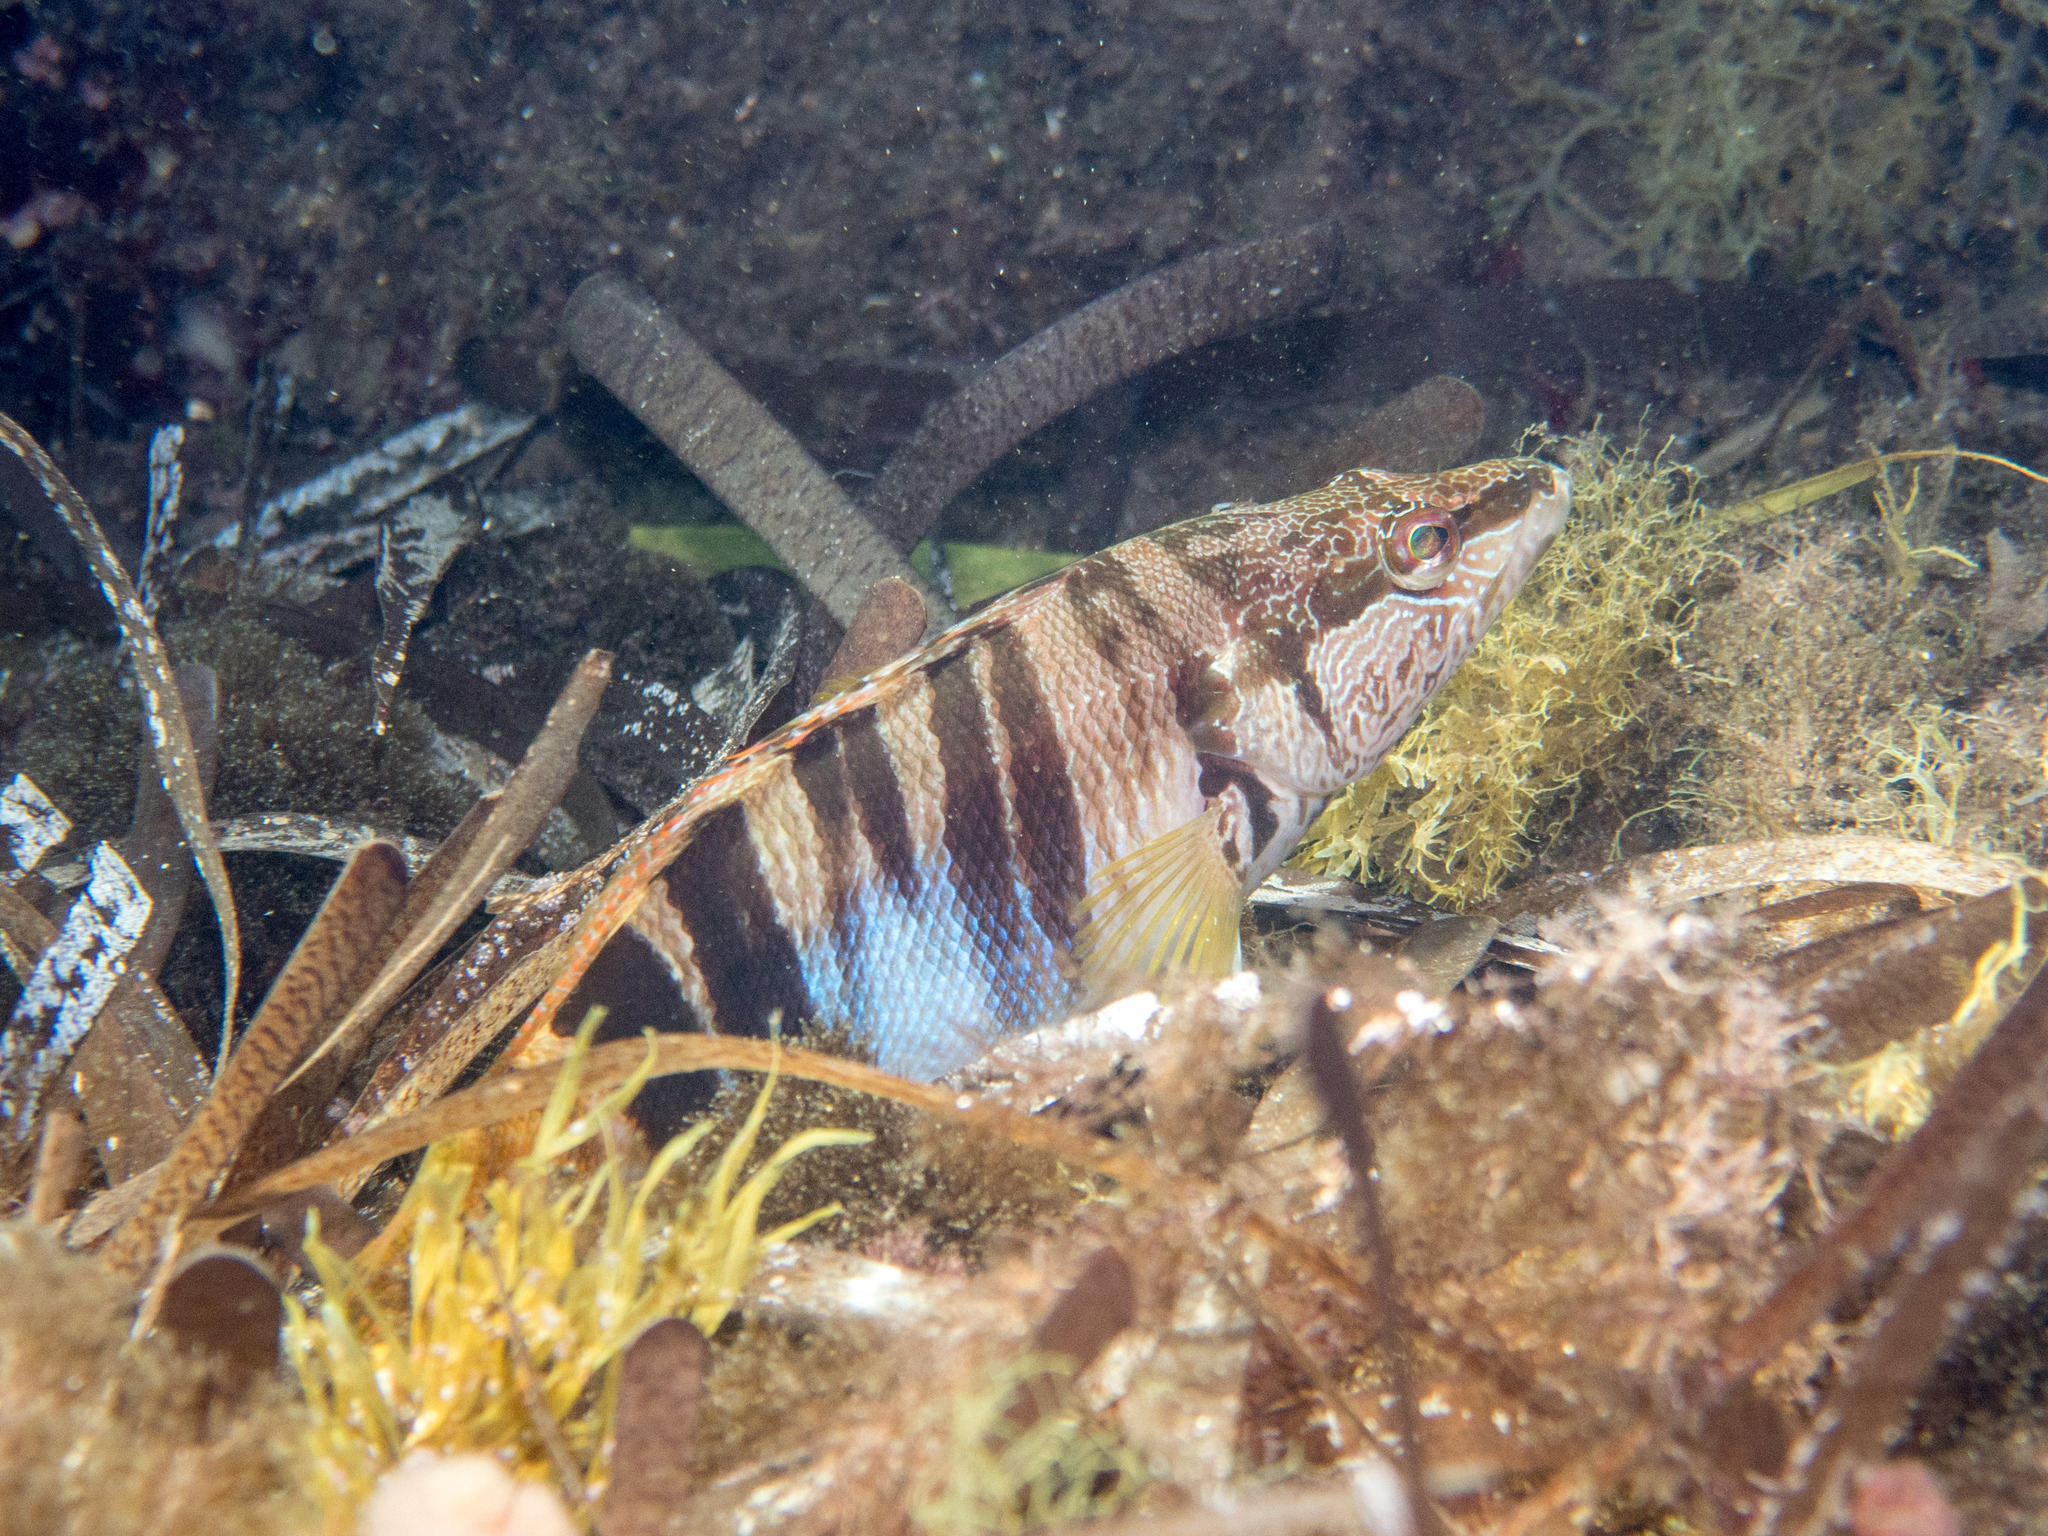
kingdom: Animalia
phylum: Chordata
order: Perciformes
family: Serranidae
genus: Serranus
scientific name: Serranus scriba
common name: Painted comber
